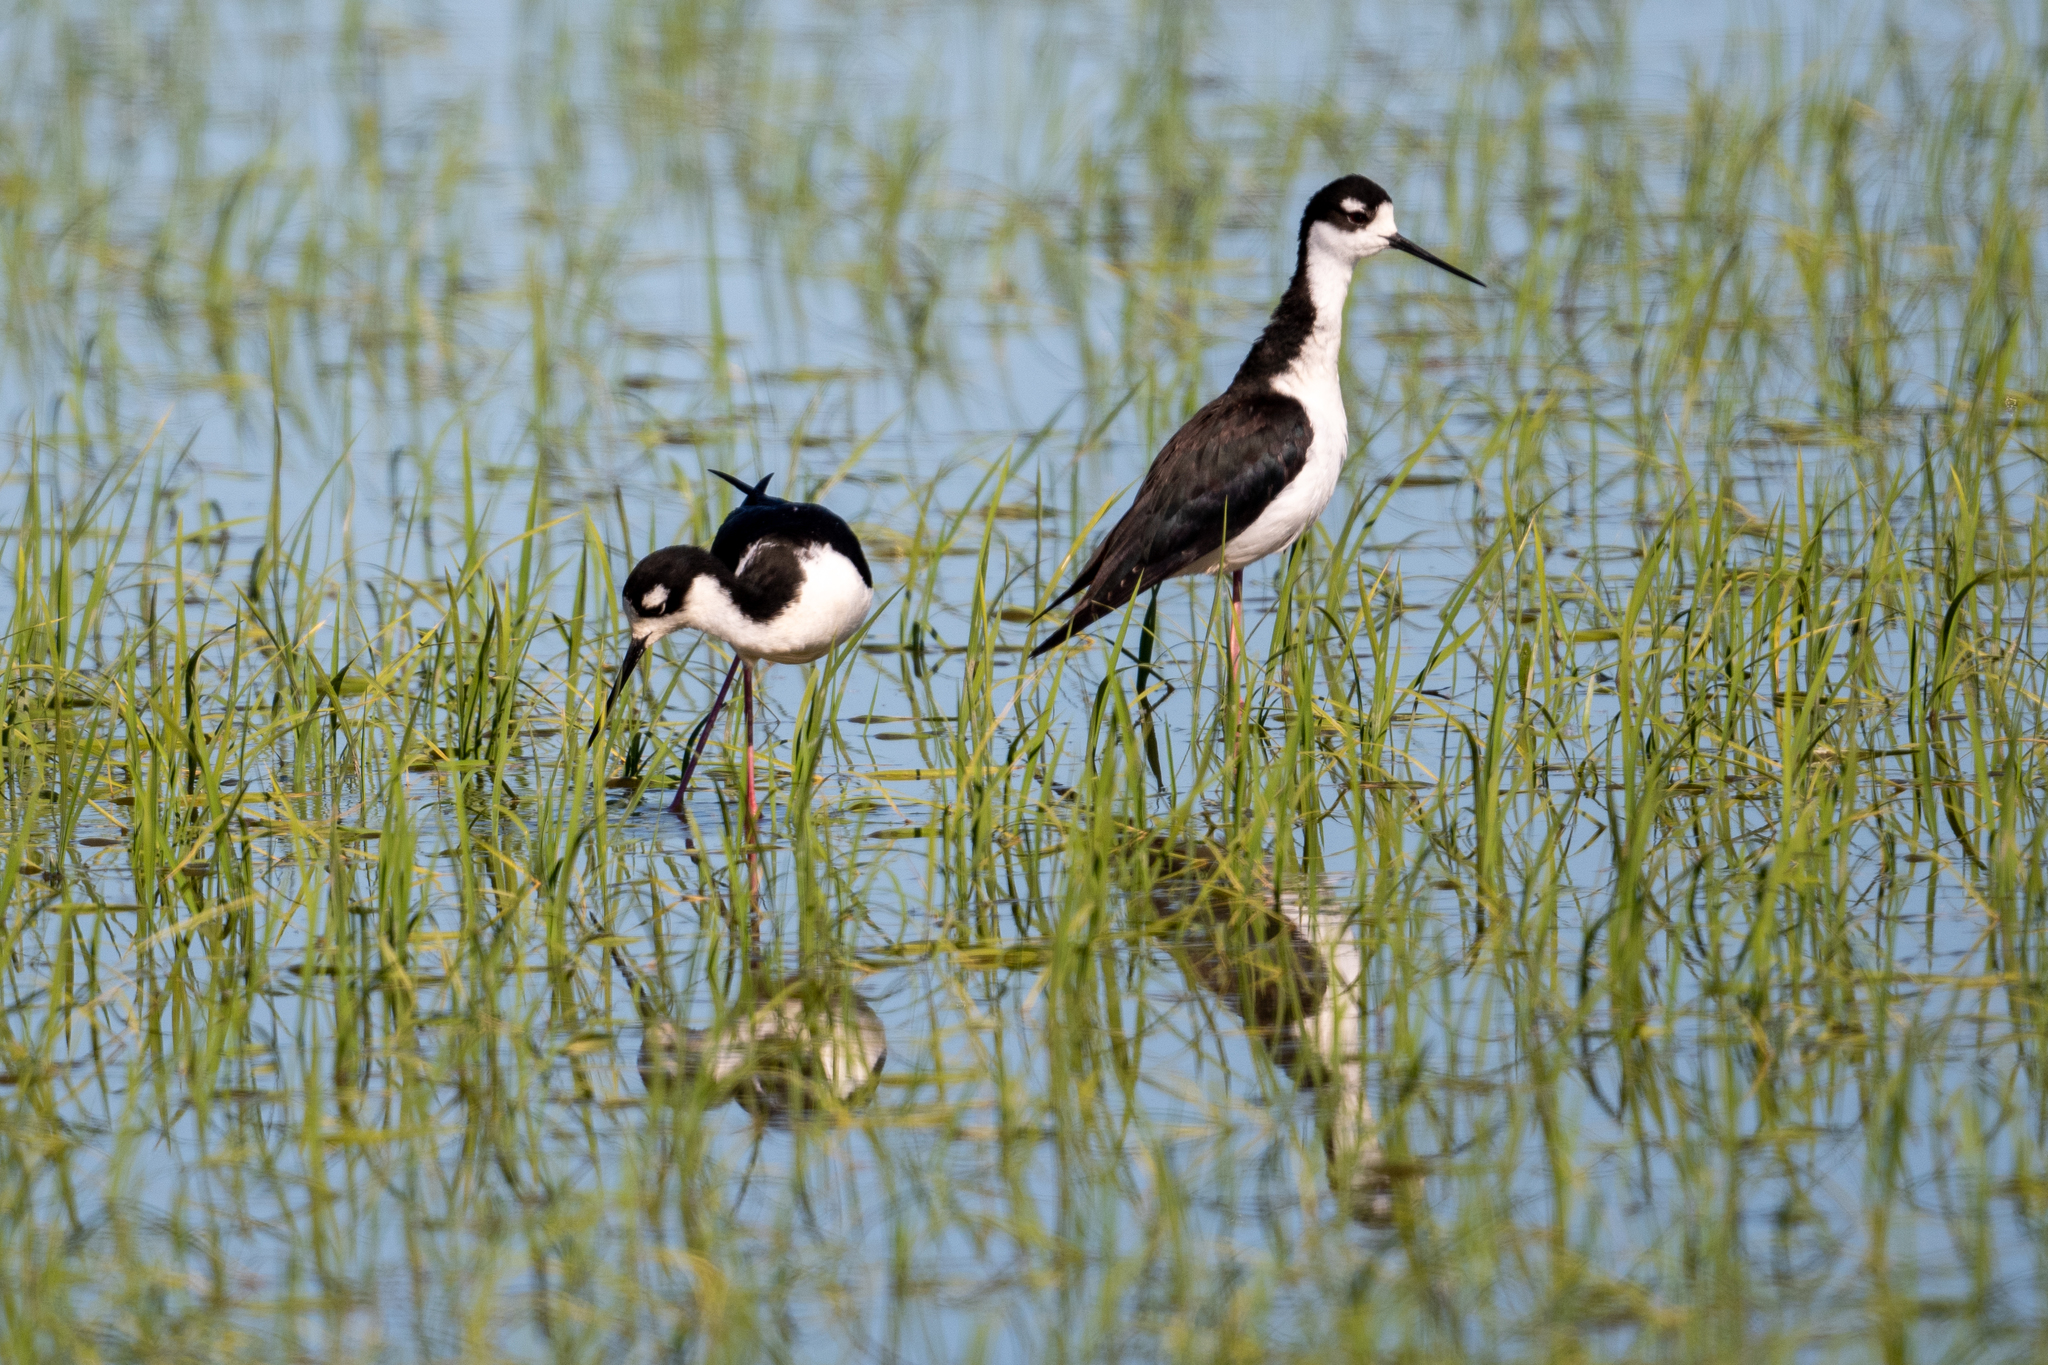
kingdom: Animalia
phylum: Chordata
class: Aves
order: Charadriiformes
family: Recurvirostridae
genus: Himantopus
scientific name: Himantopus mexicanus
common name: Black-necked stilt
